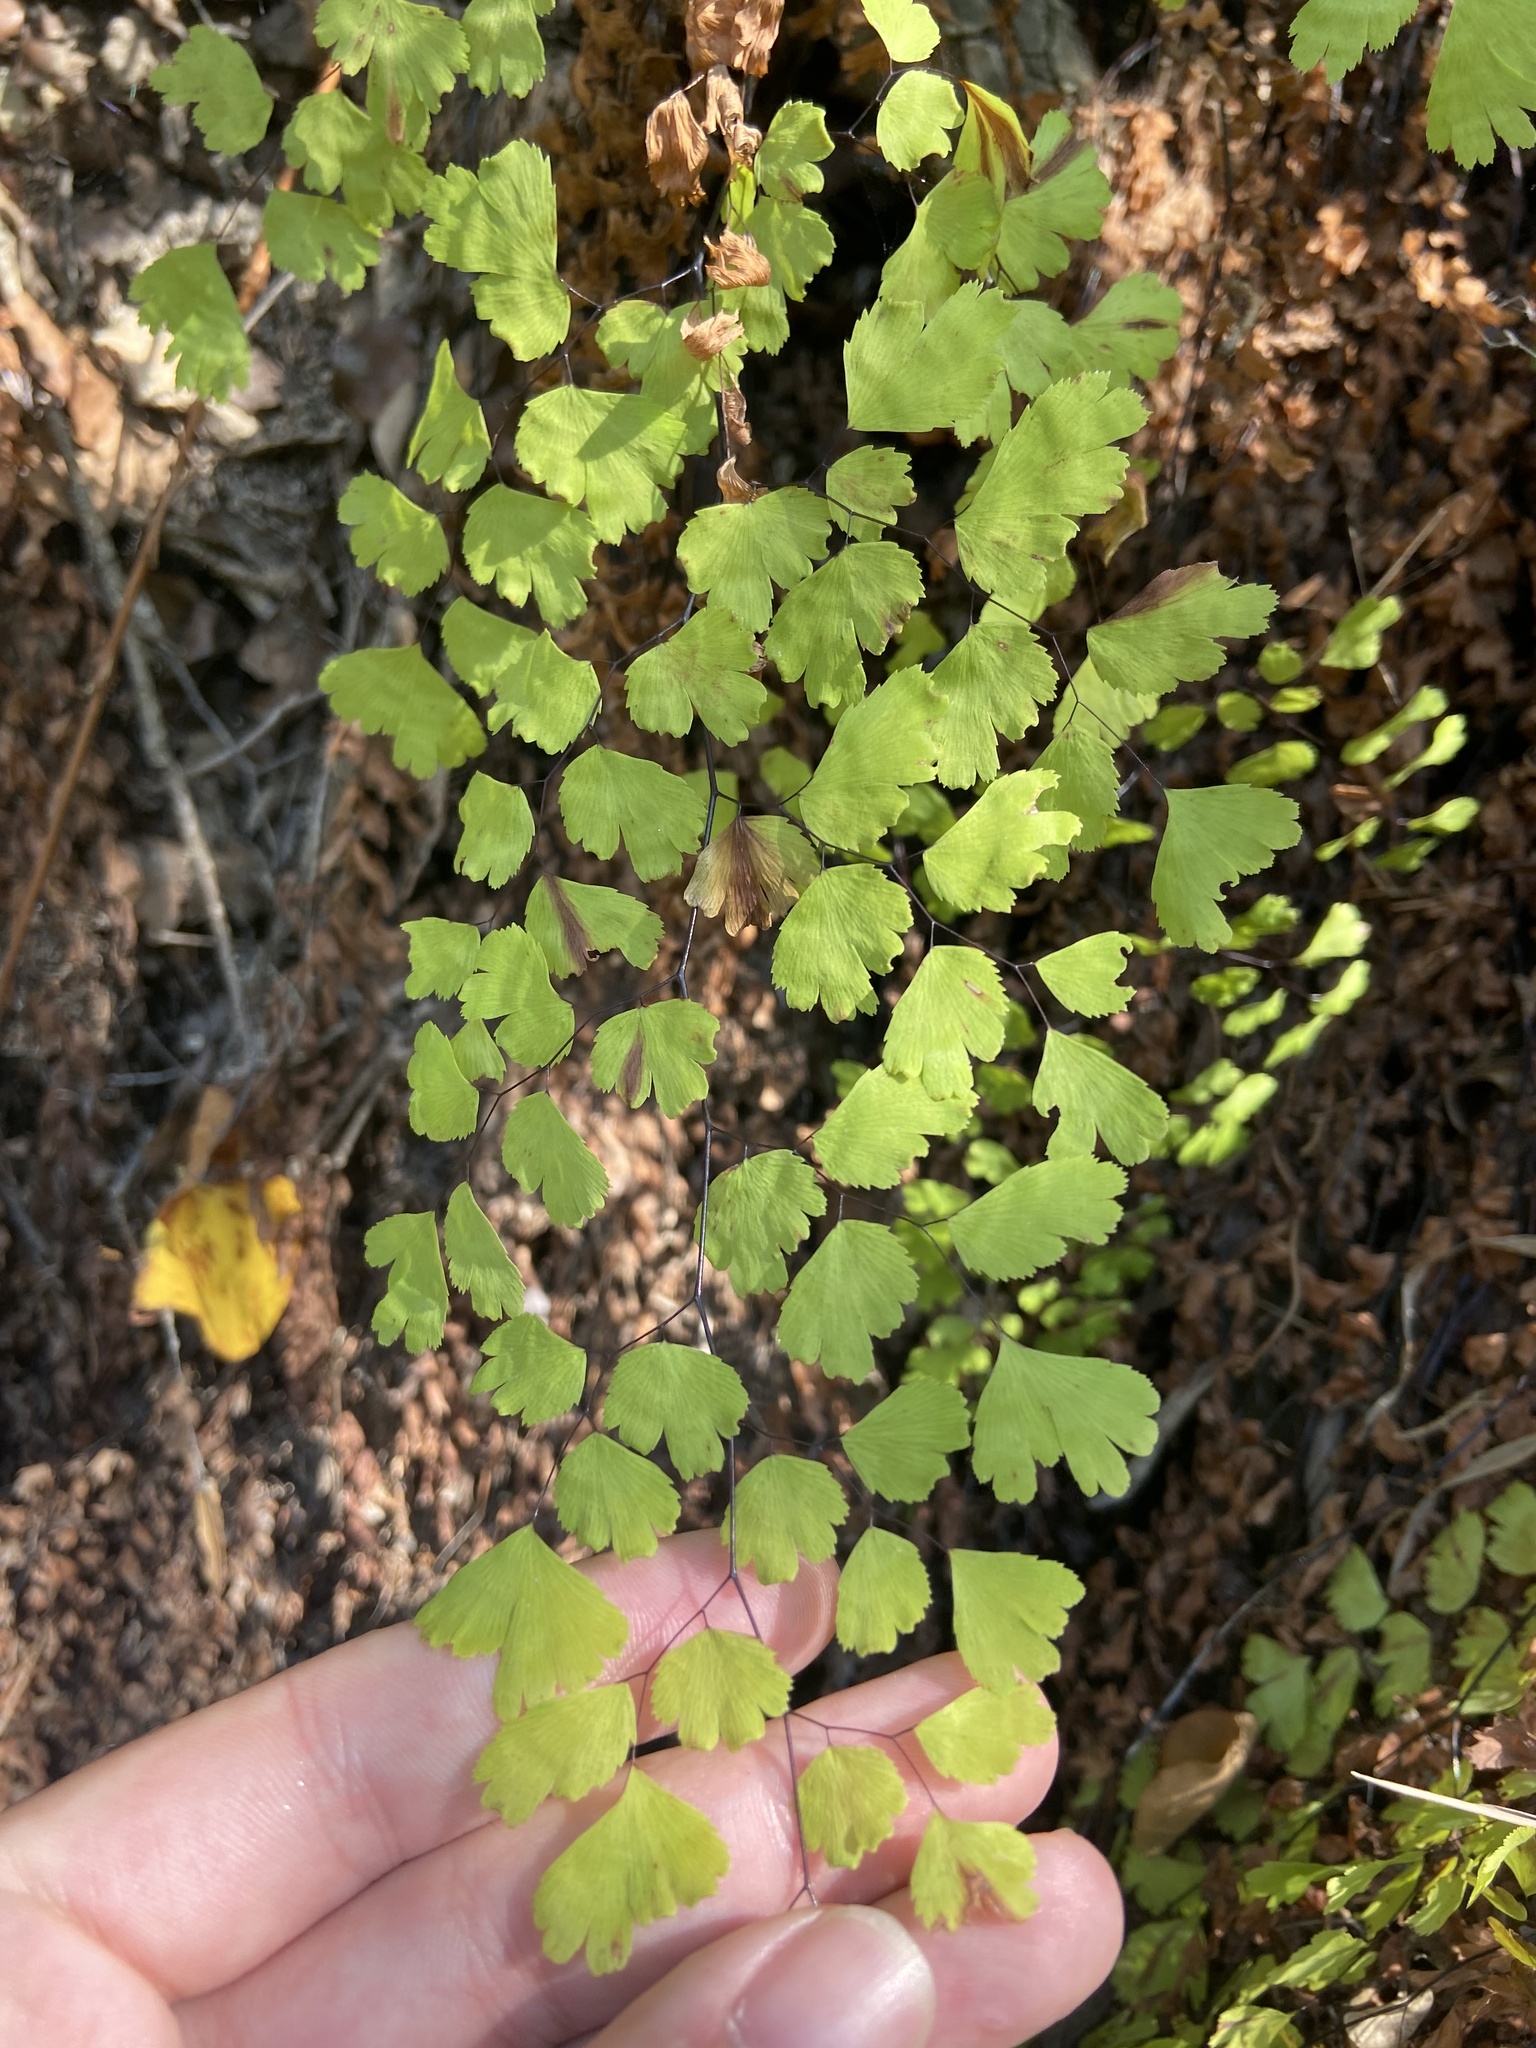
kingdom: Plantae
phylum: Tracheophyta
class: Polypodiopsida
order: Polypodiales
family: Pteridaceae
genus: Adiantum
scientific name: Adiantum capillus-veneris
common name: Maidenhair fern
